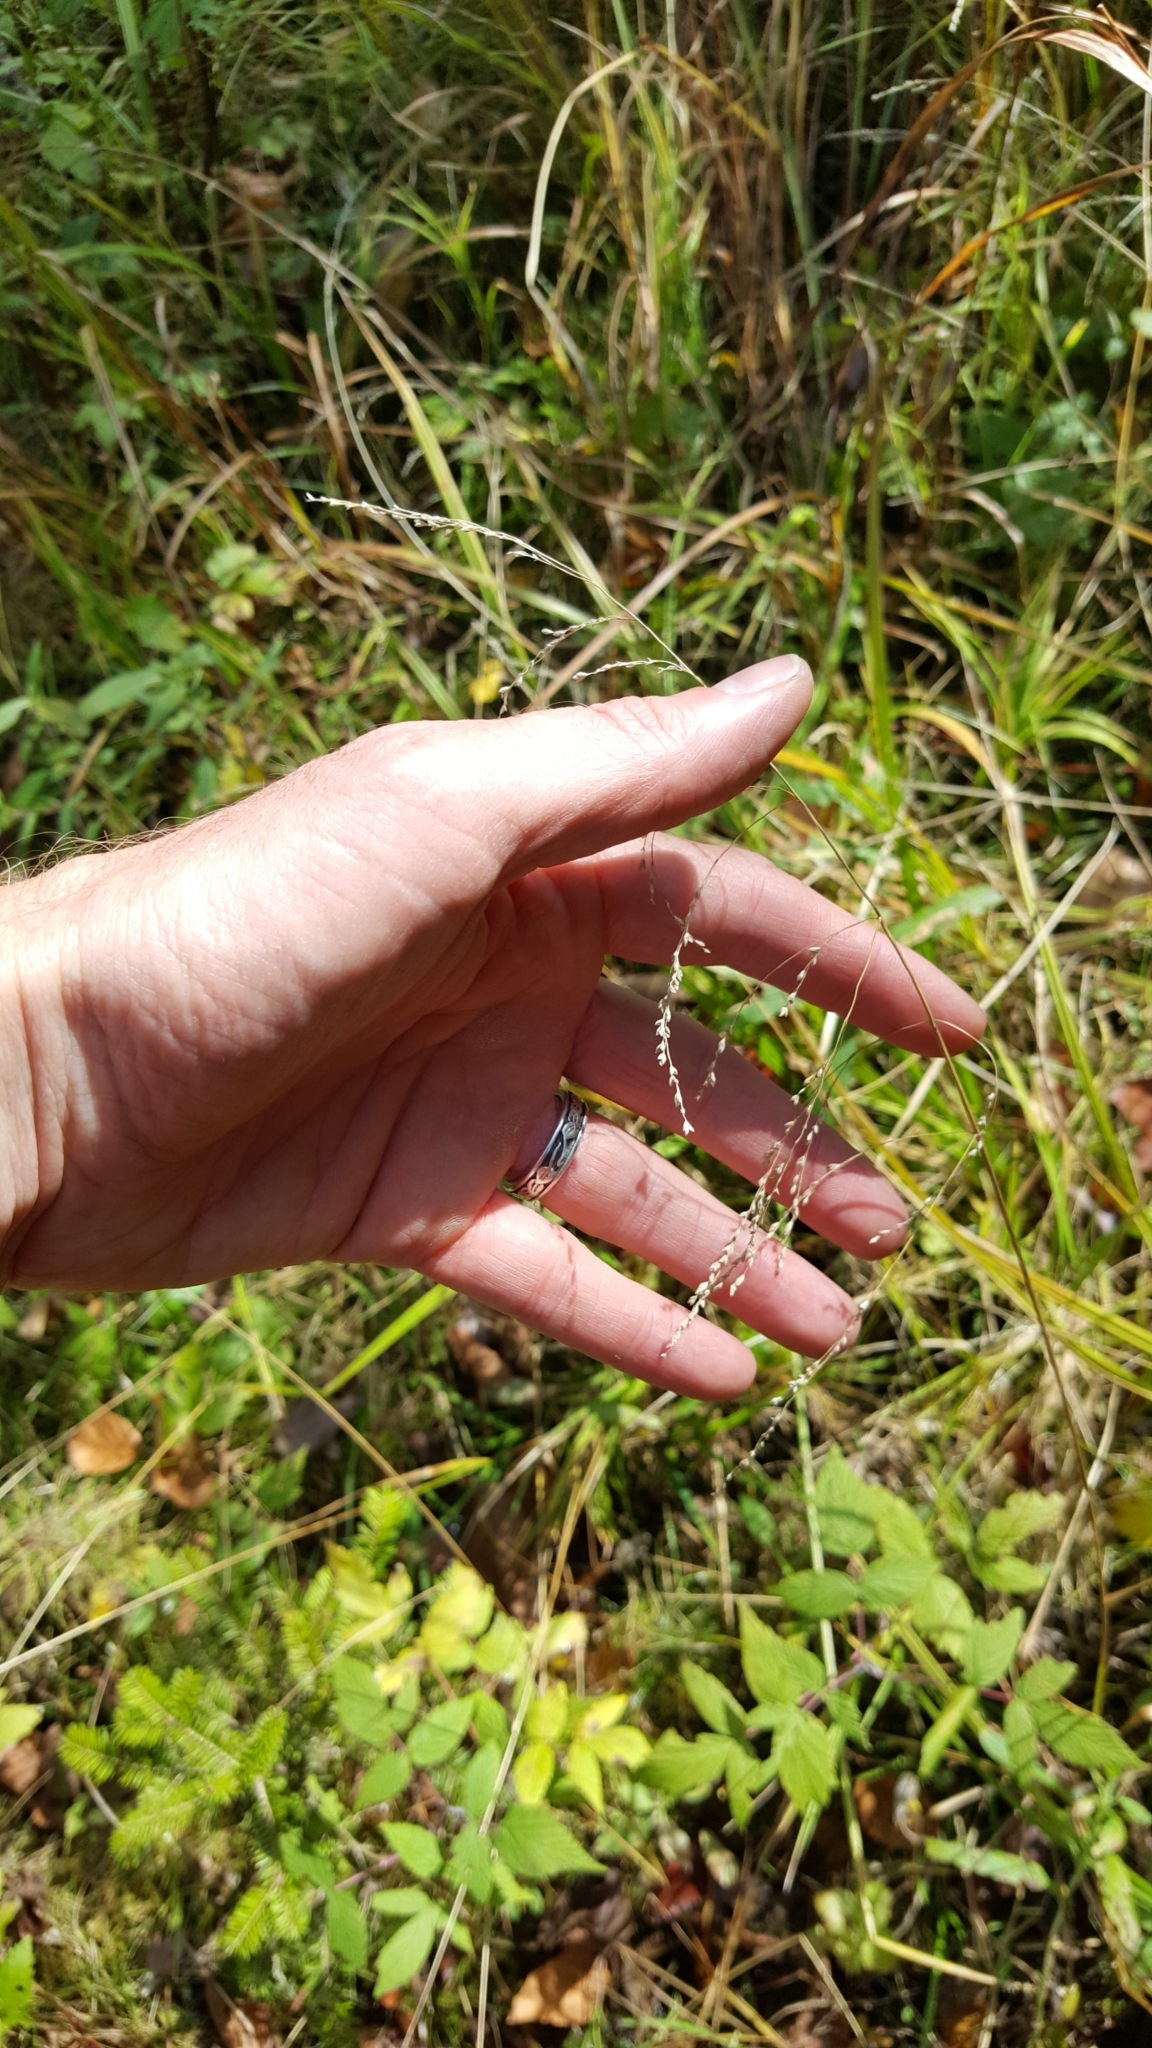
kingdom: Plantae
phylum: Tracheophyta
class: Liliopsida
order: Poales
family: Poaceae
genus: Glyceria
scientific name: Glyceria striata
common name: Fowl manna grass
